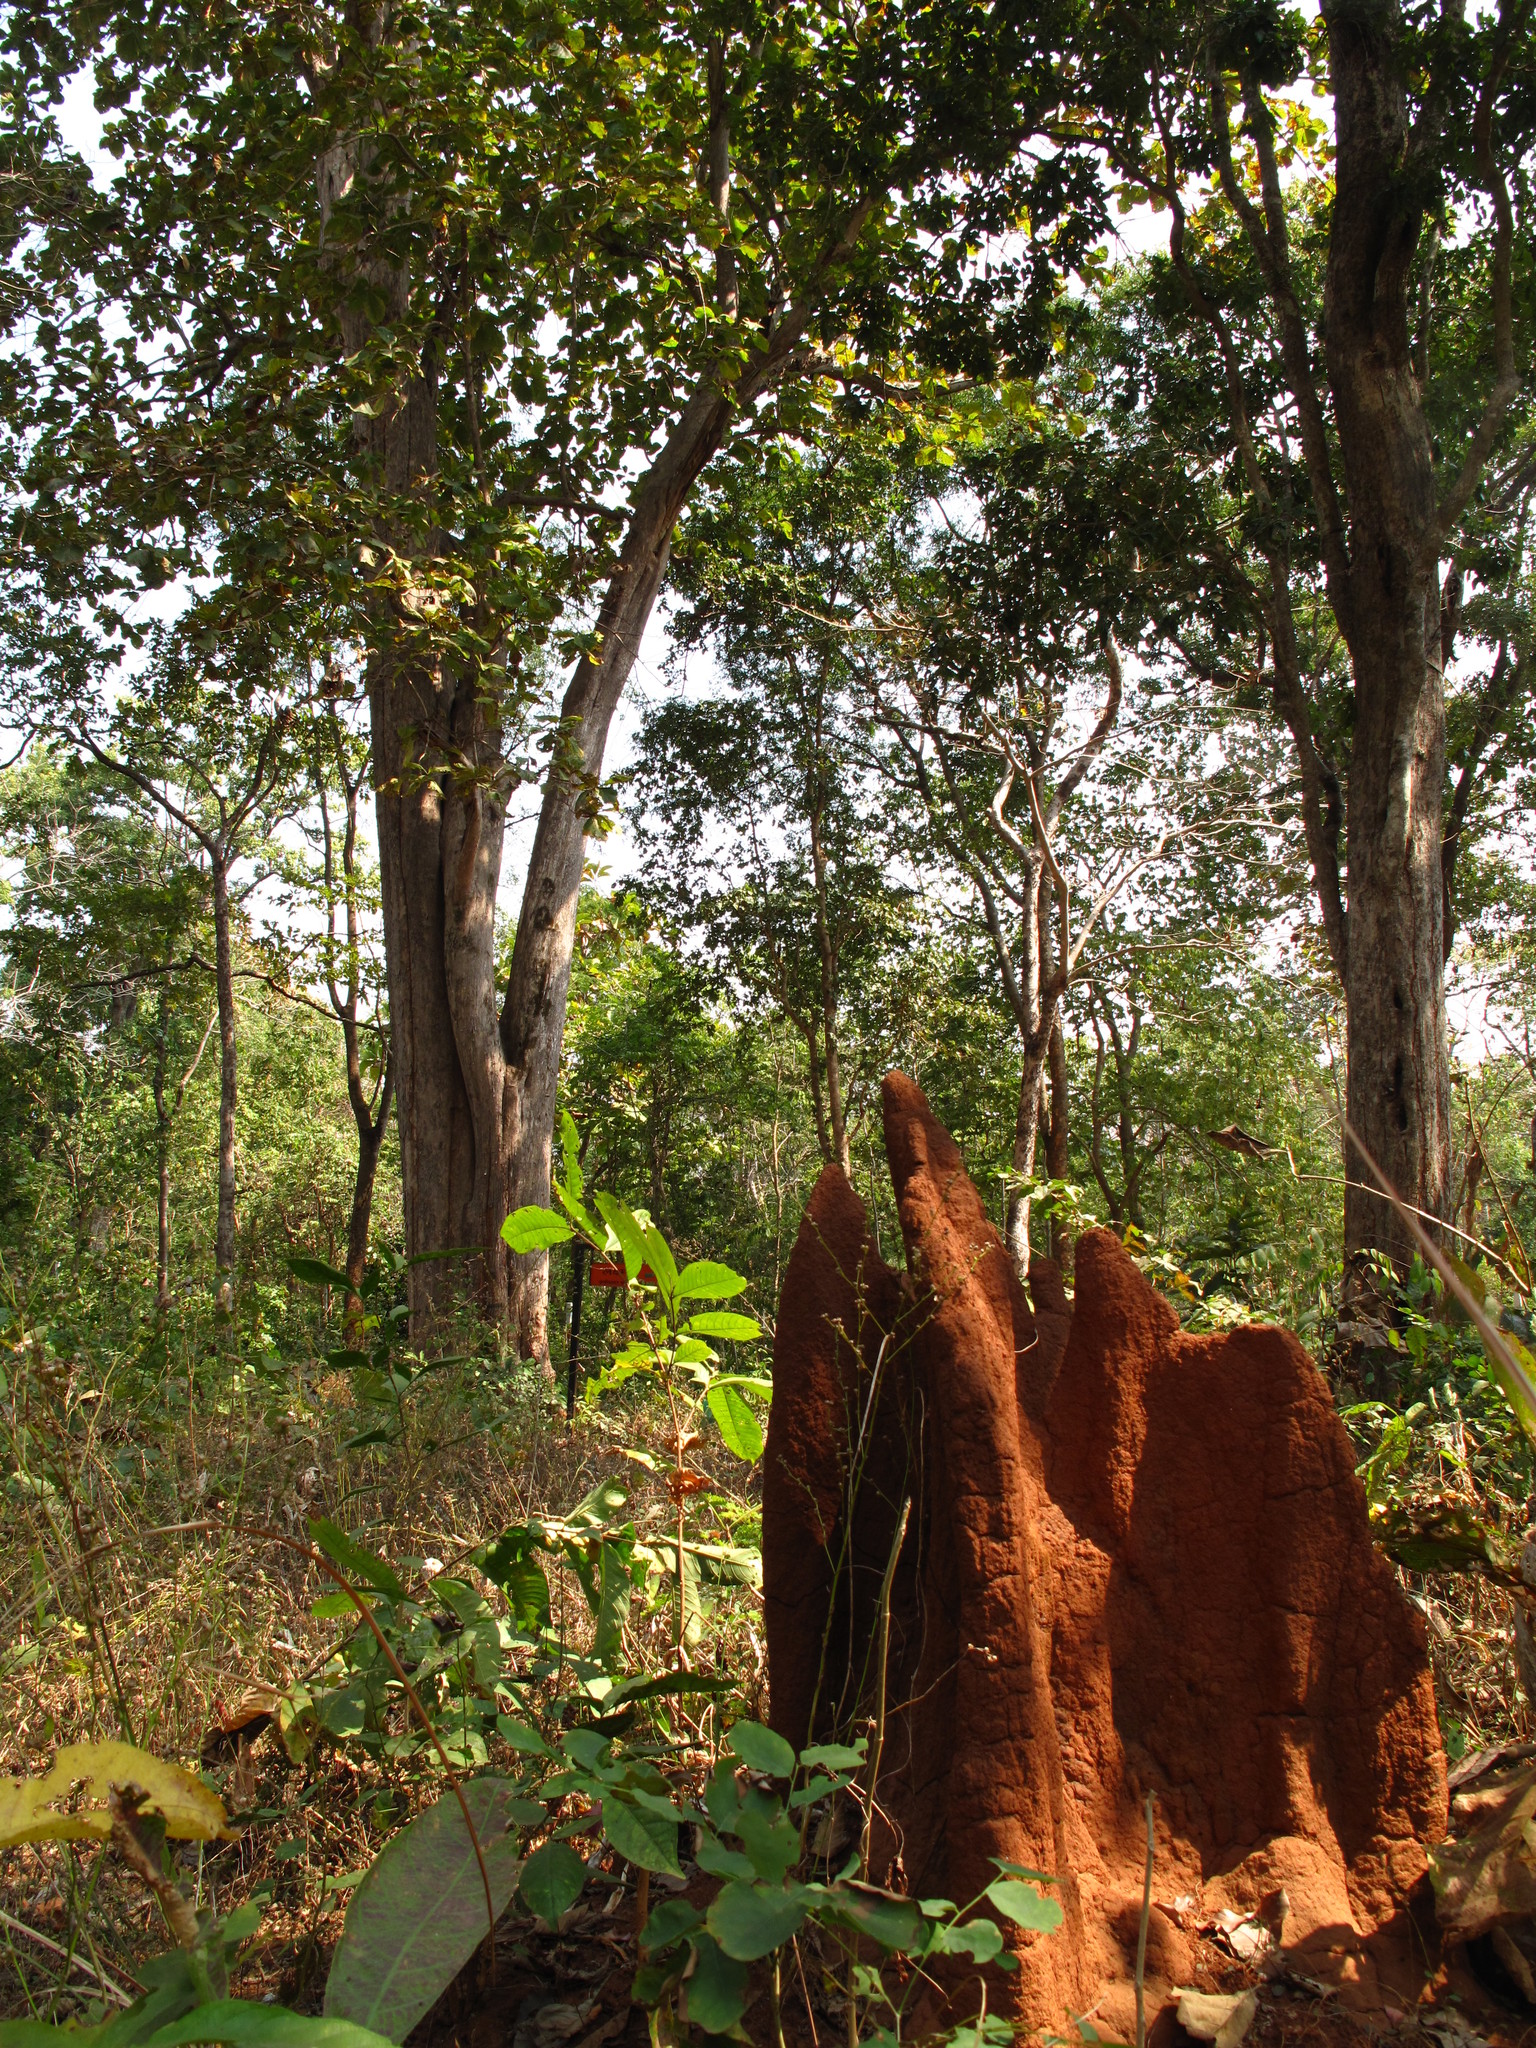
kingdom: Plantae
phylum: Tracheophyta
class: Magnoliopsida
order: Lamiales
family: Lamiaceae
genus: Tectona
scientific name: Tectona grandis
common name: Teak
